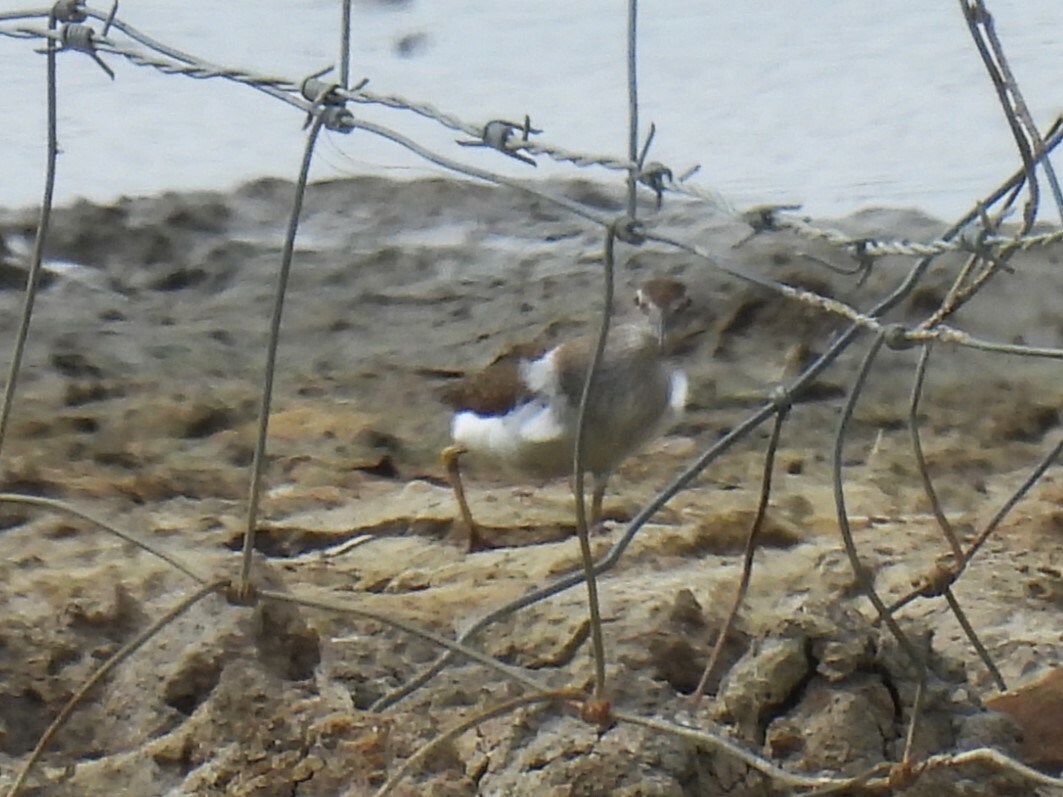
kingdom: Animalia
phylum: Chordata
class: Aves
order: Charadriiformes
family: Scolopacidae
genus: Actitis
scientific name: Actitis hypoleucos
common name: Common sandpiper
